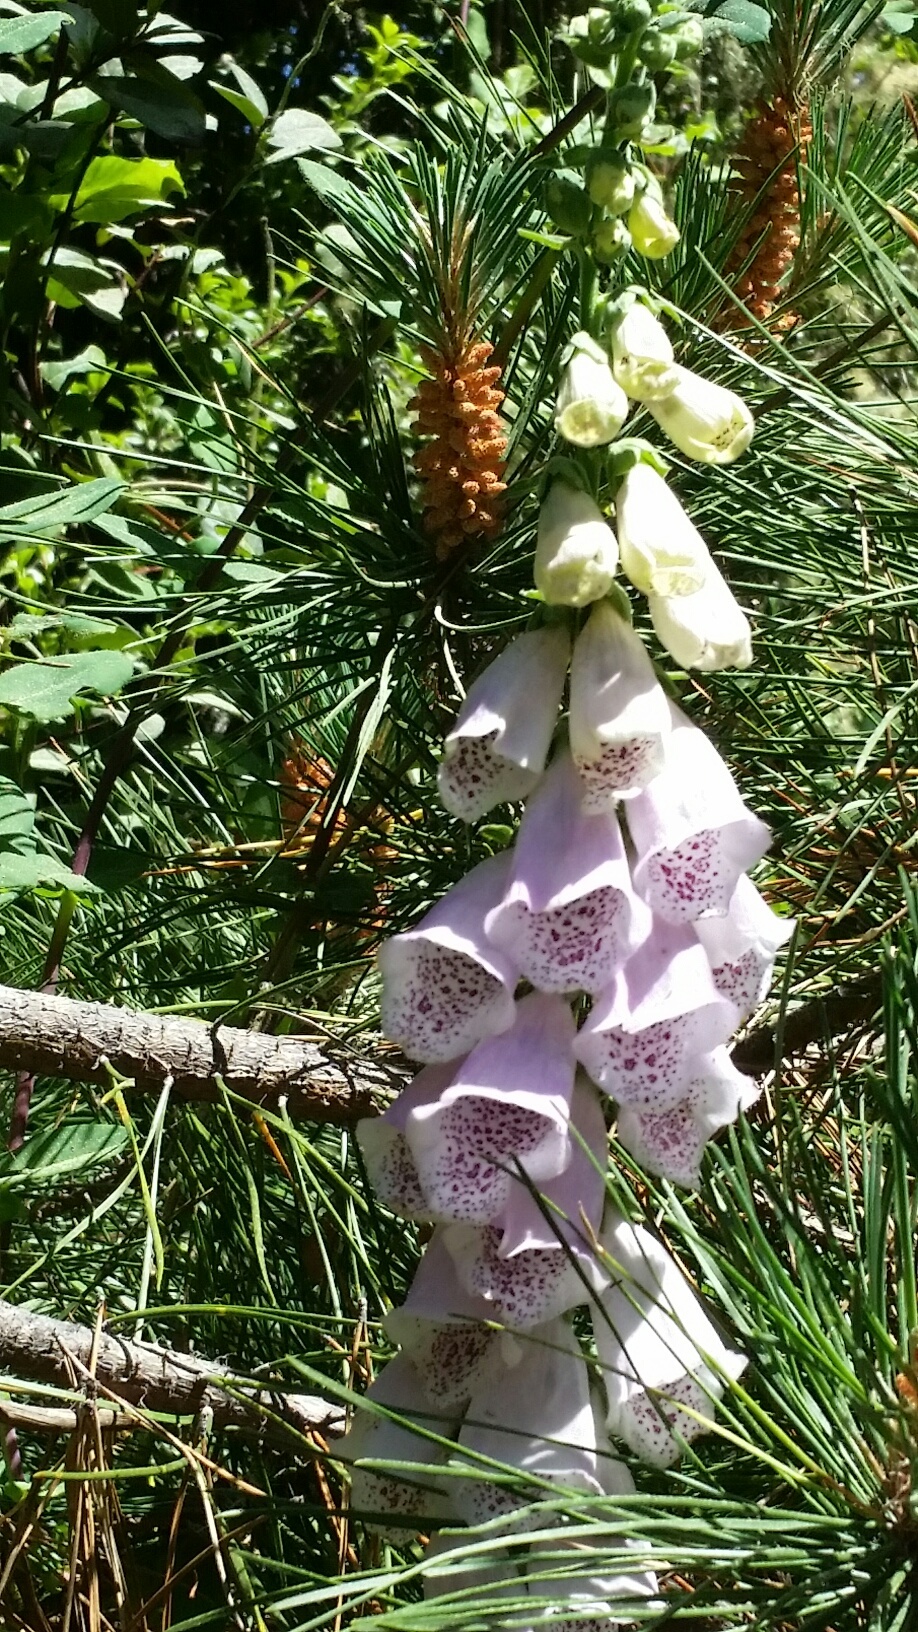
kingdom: Plantae
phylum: Tracheophyta
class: Magnoliopsida
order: Lamiales
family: Plantaginaceae
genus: Digitalis
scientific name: Digitalis purpurea
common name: Foxglove
